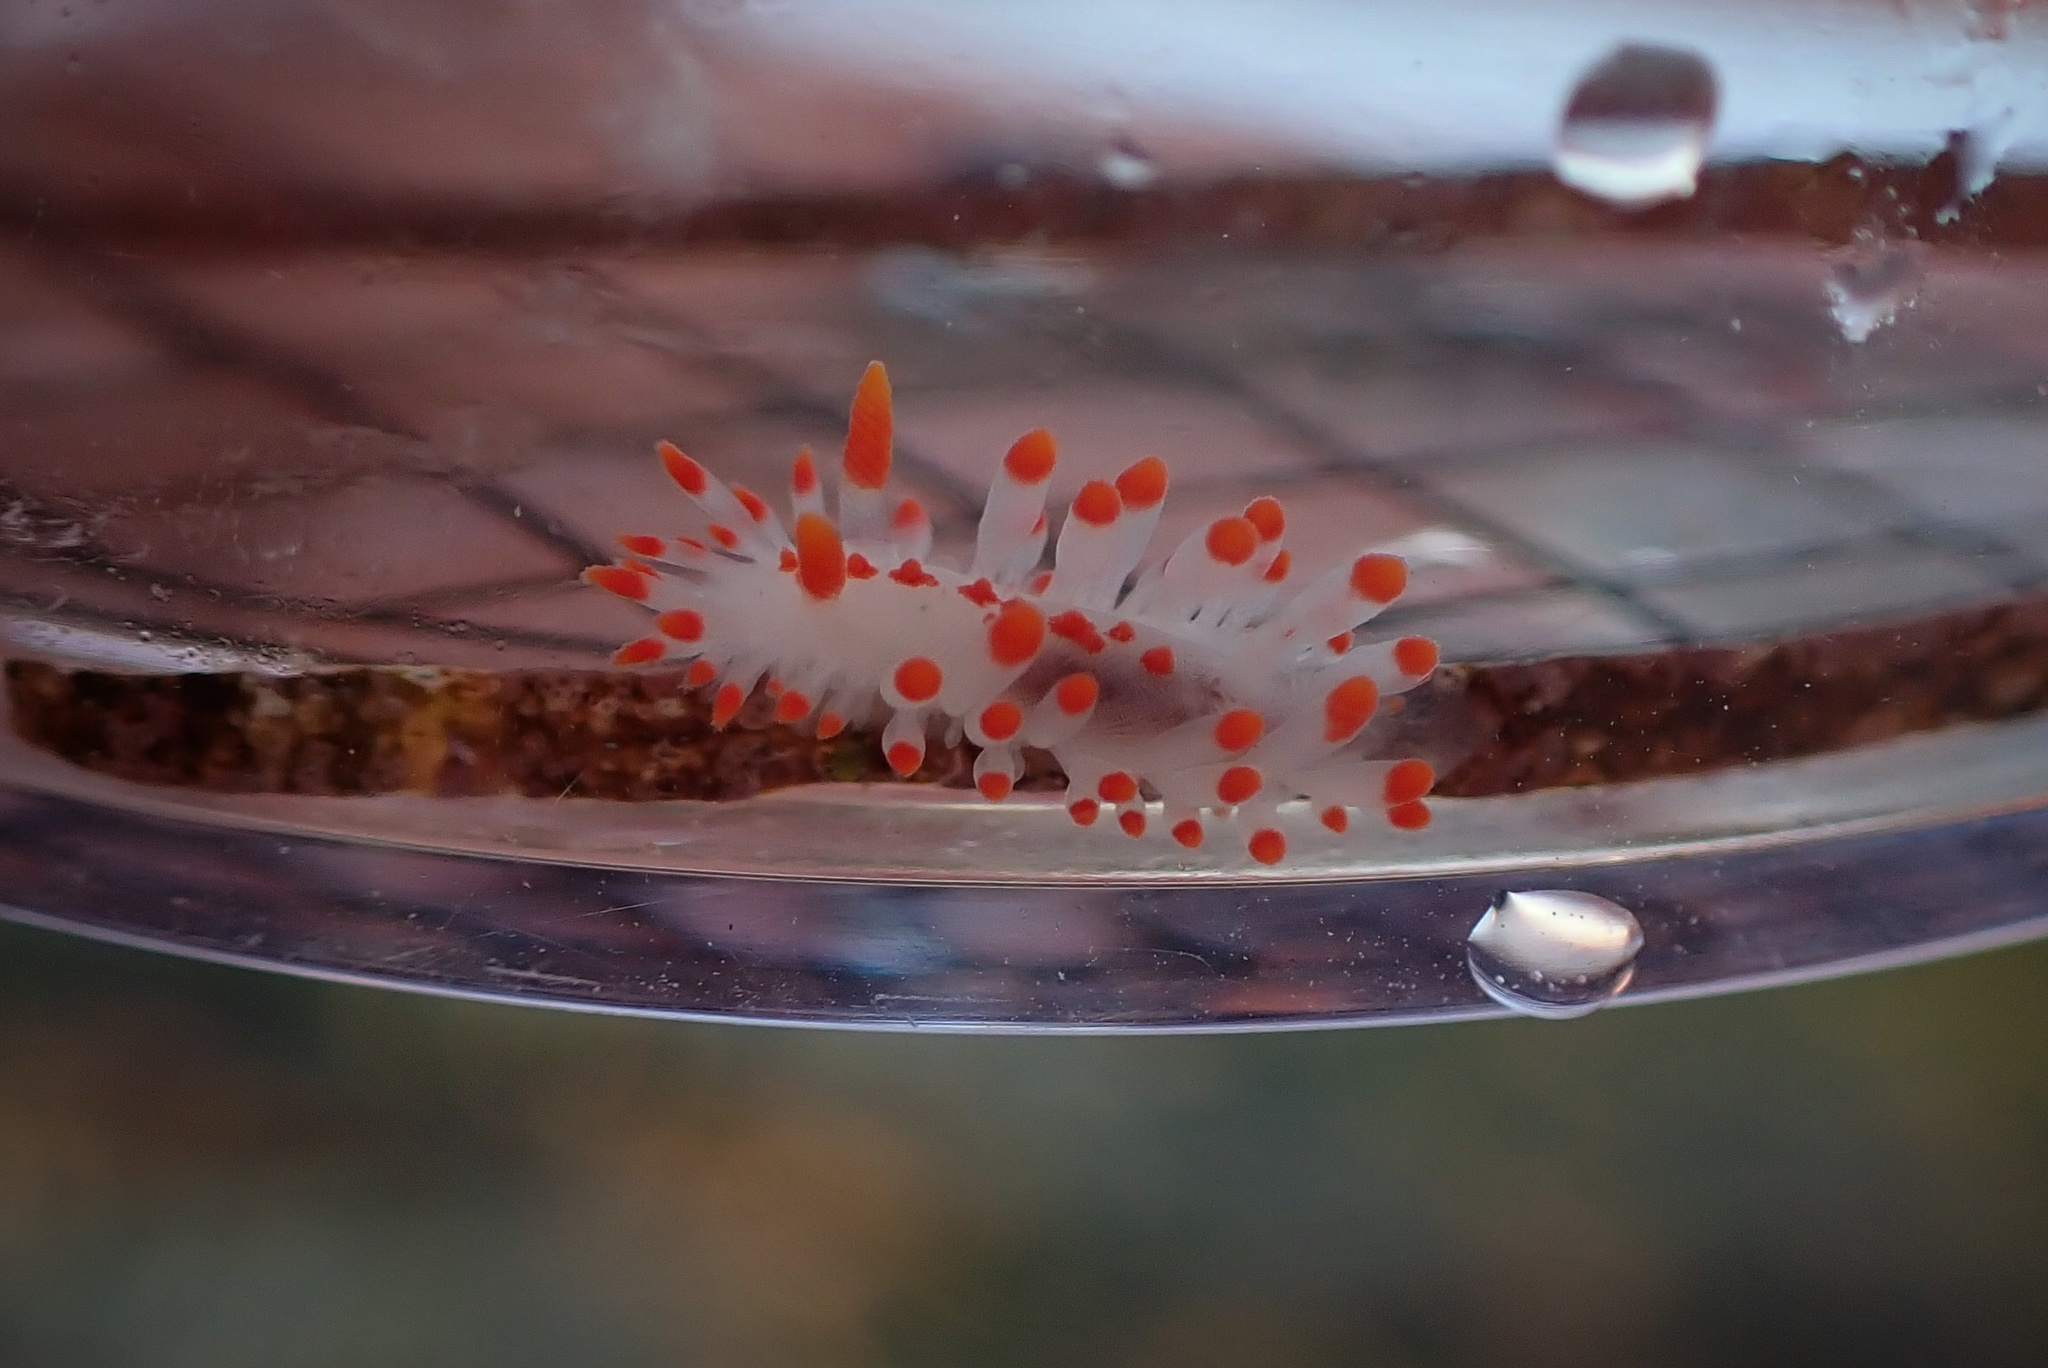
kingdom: Animalia
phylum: Mollusca
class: Gastropoda
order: Nudibranchia
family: Polyceridae
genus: Limacia
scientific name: Limacia mcdonaldi
